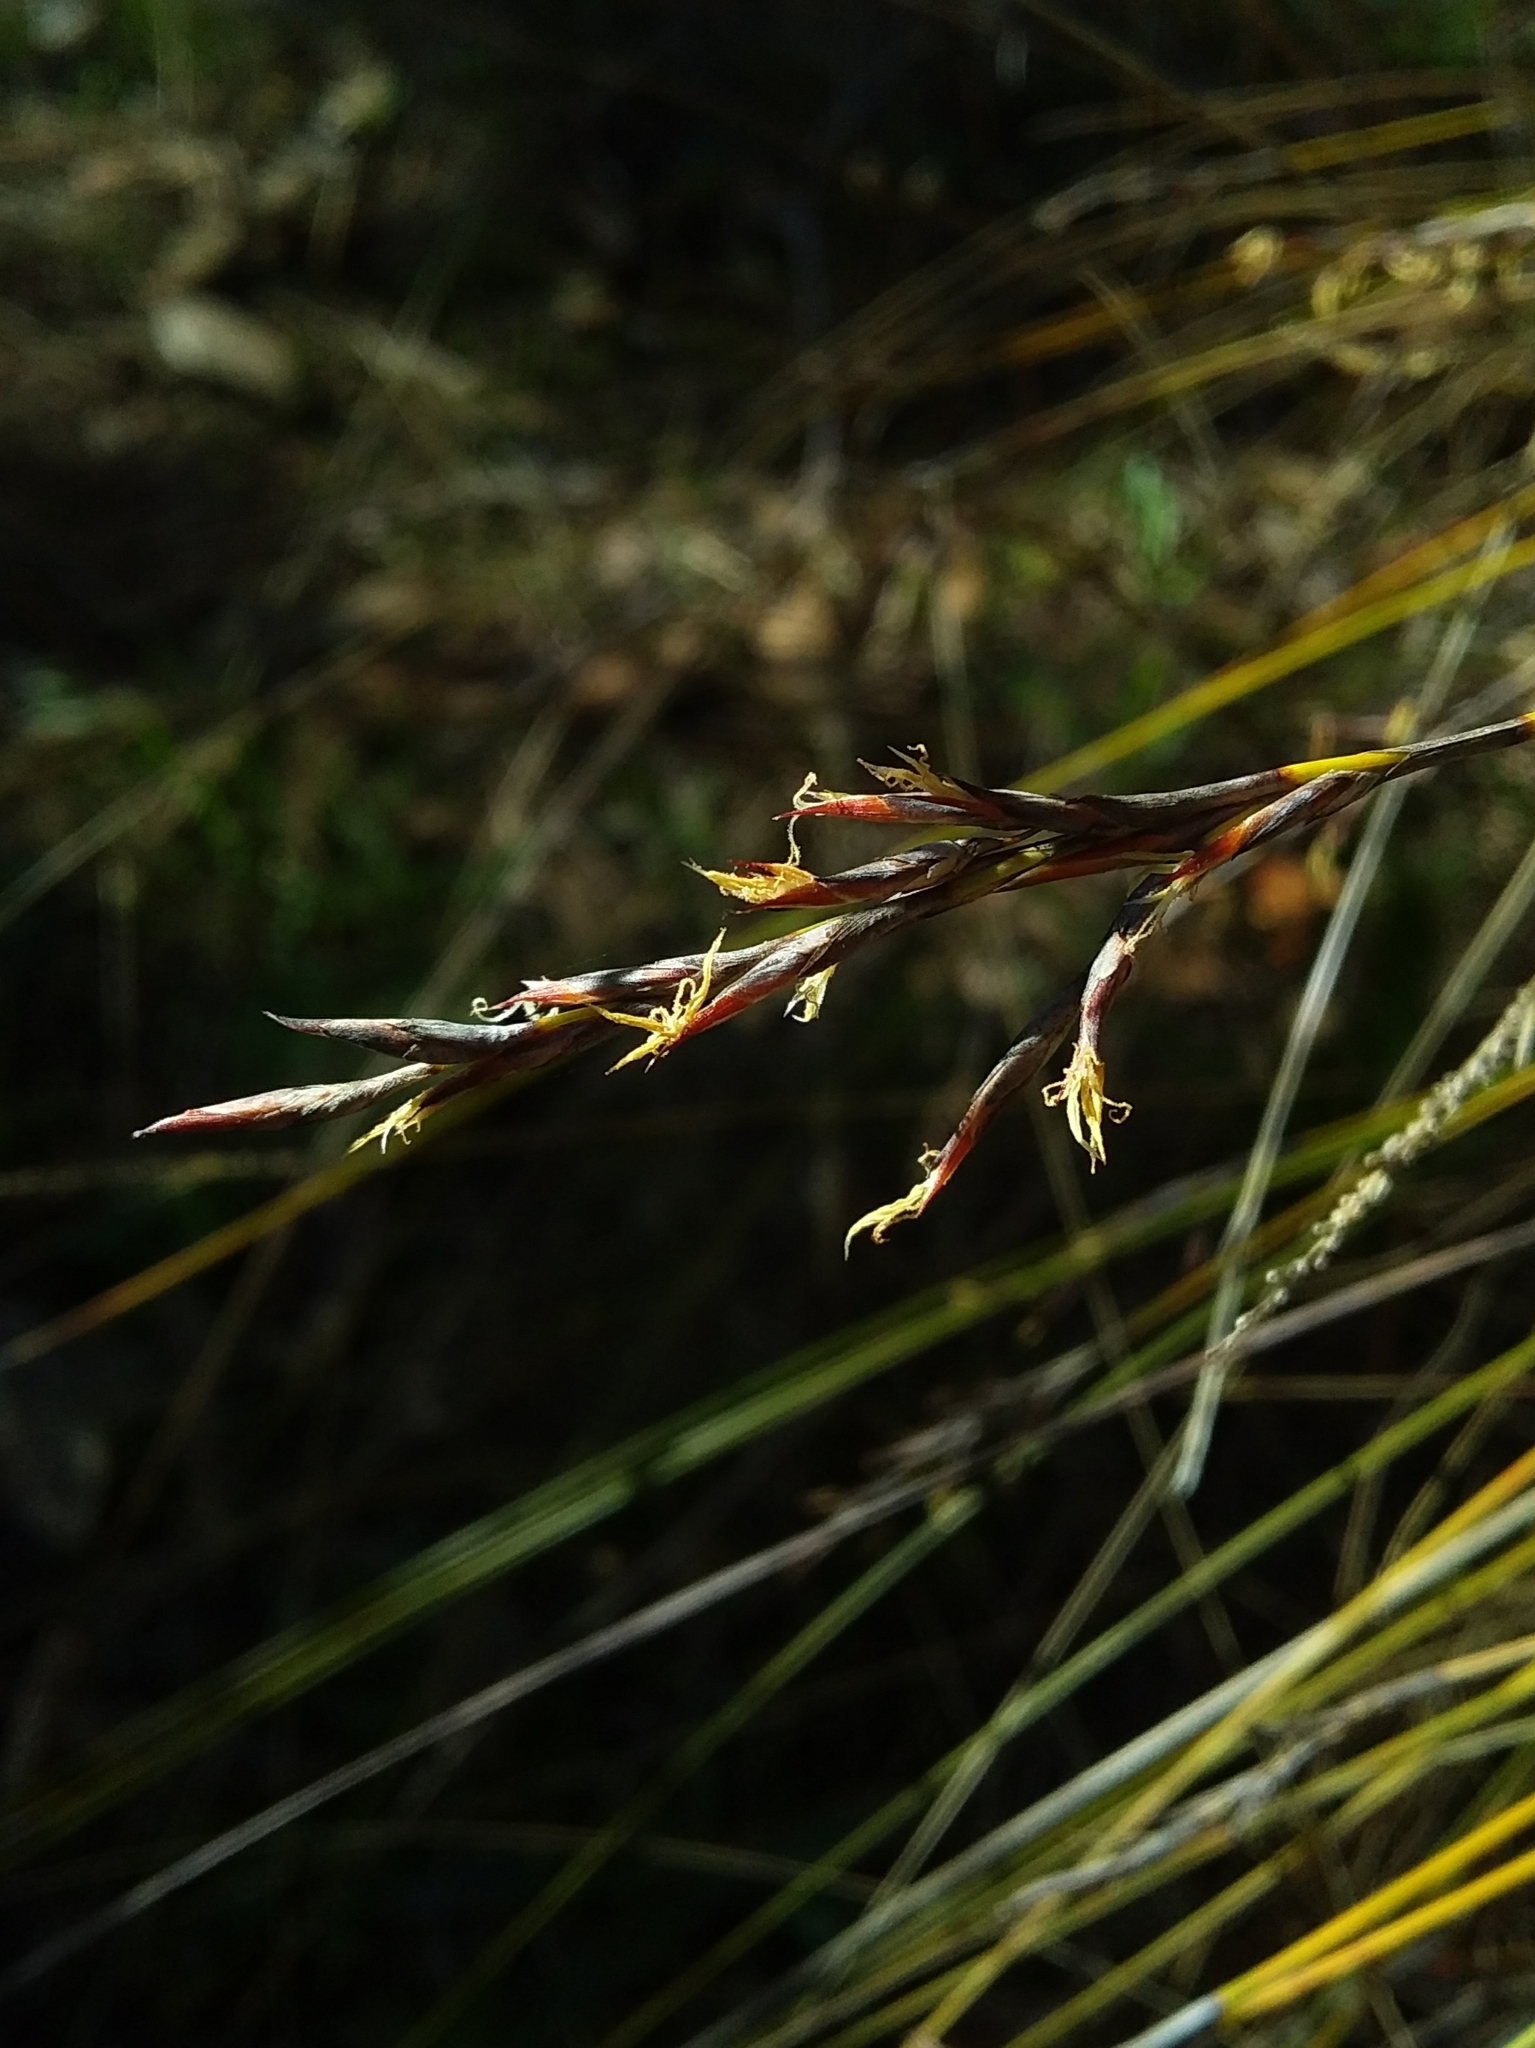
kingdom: Plantae
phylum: Tracheophyta
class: Liliopsida
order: Poales
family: Cyperaceae
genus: Lepidosperma
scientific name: Lepidosperma semiteres
